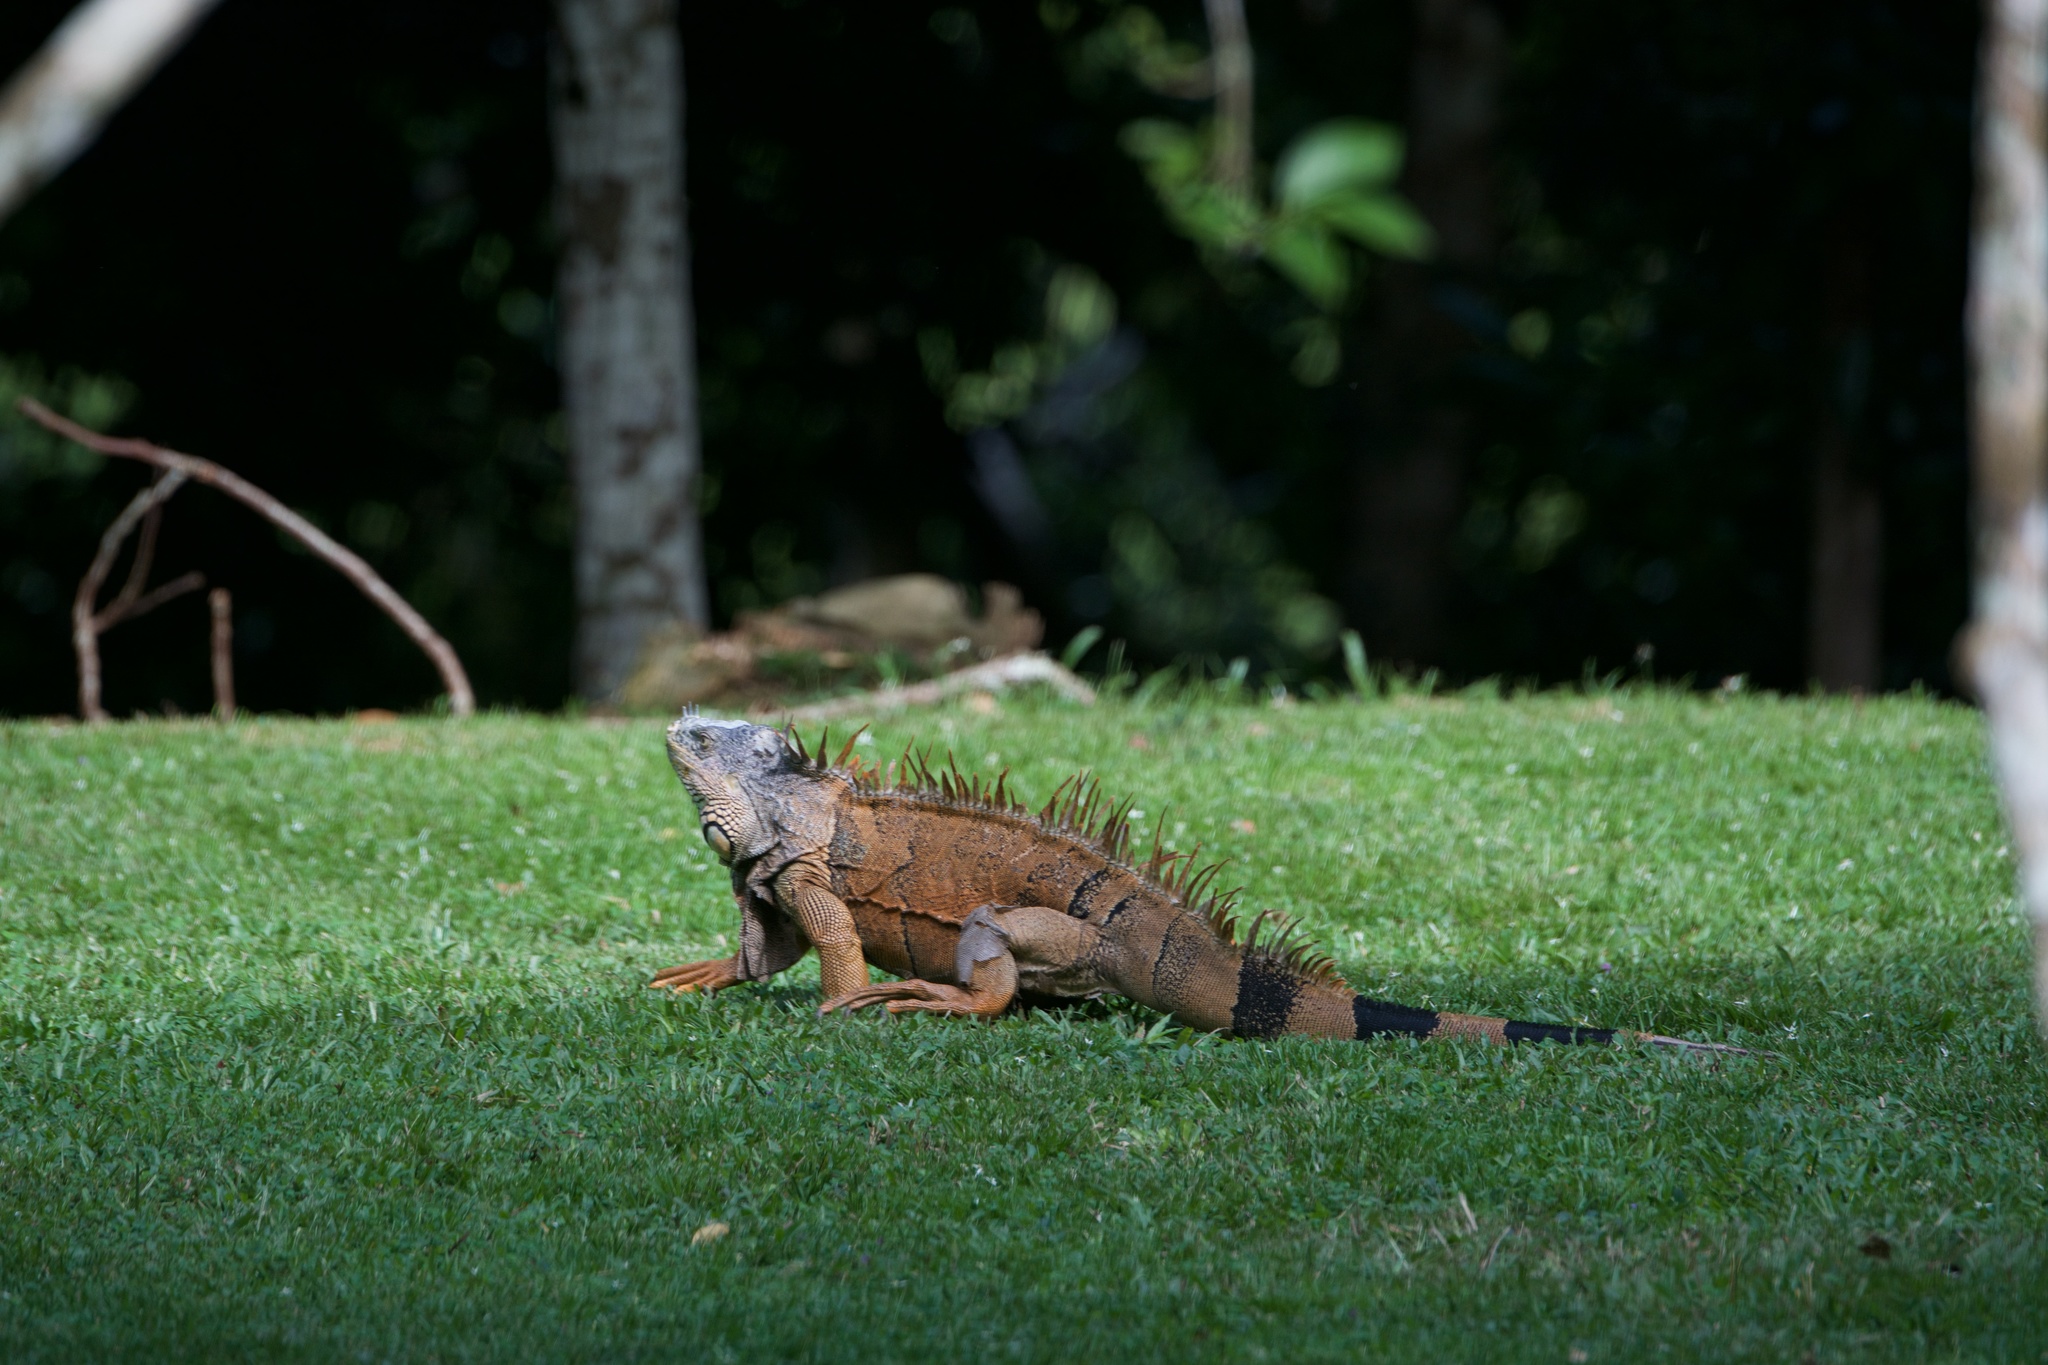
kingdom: Animalia
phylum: Chordata
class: Squamata
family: Iguanidae
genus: Iguana
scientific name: Iguana iguana
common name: Green iguana
